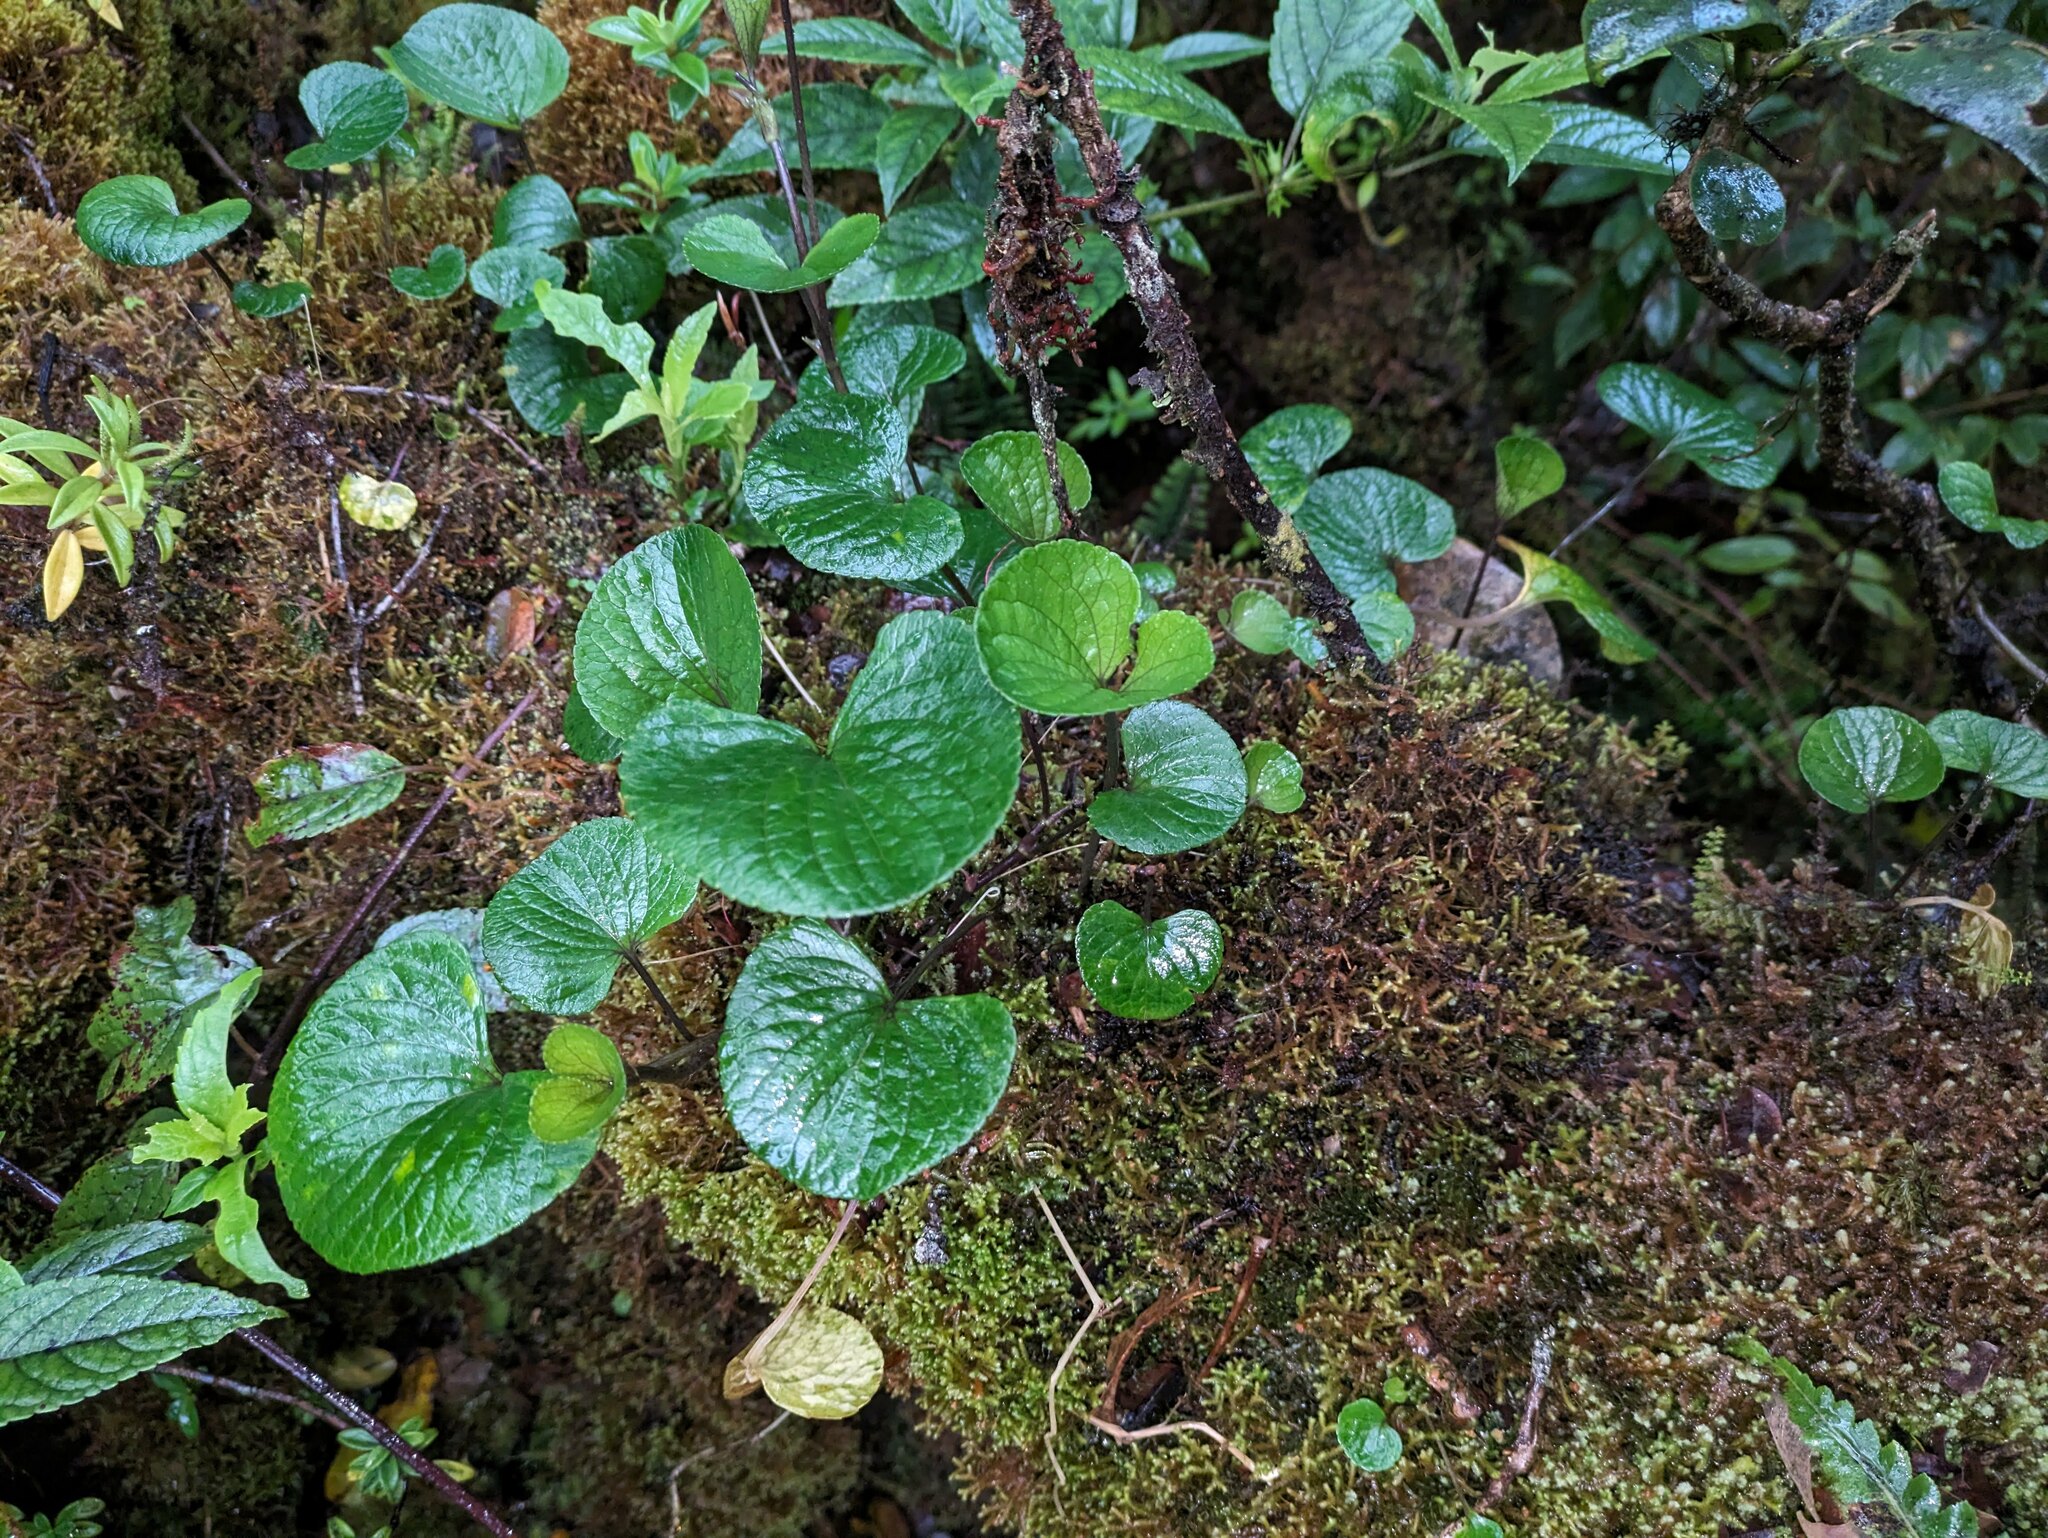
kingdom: Plantae
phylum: Tracheophyta
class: Magnoliopsida
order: Malpighiales
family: Violaceae
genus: Viola
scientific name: Viola kauaensis
